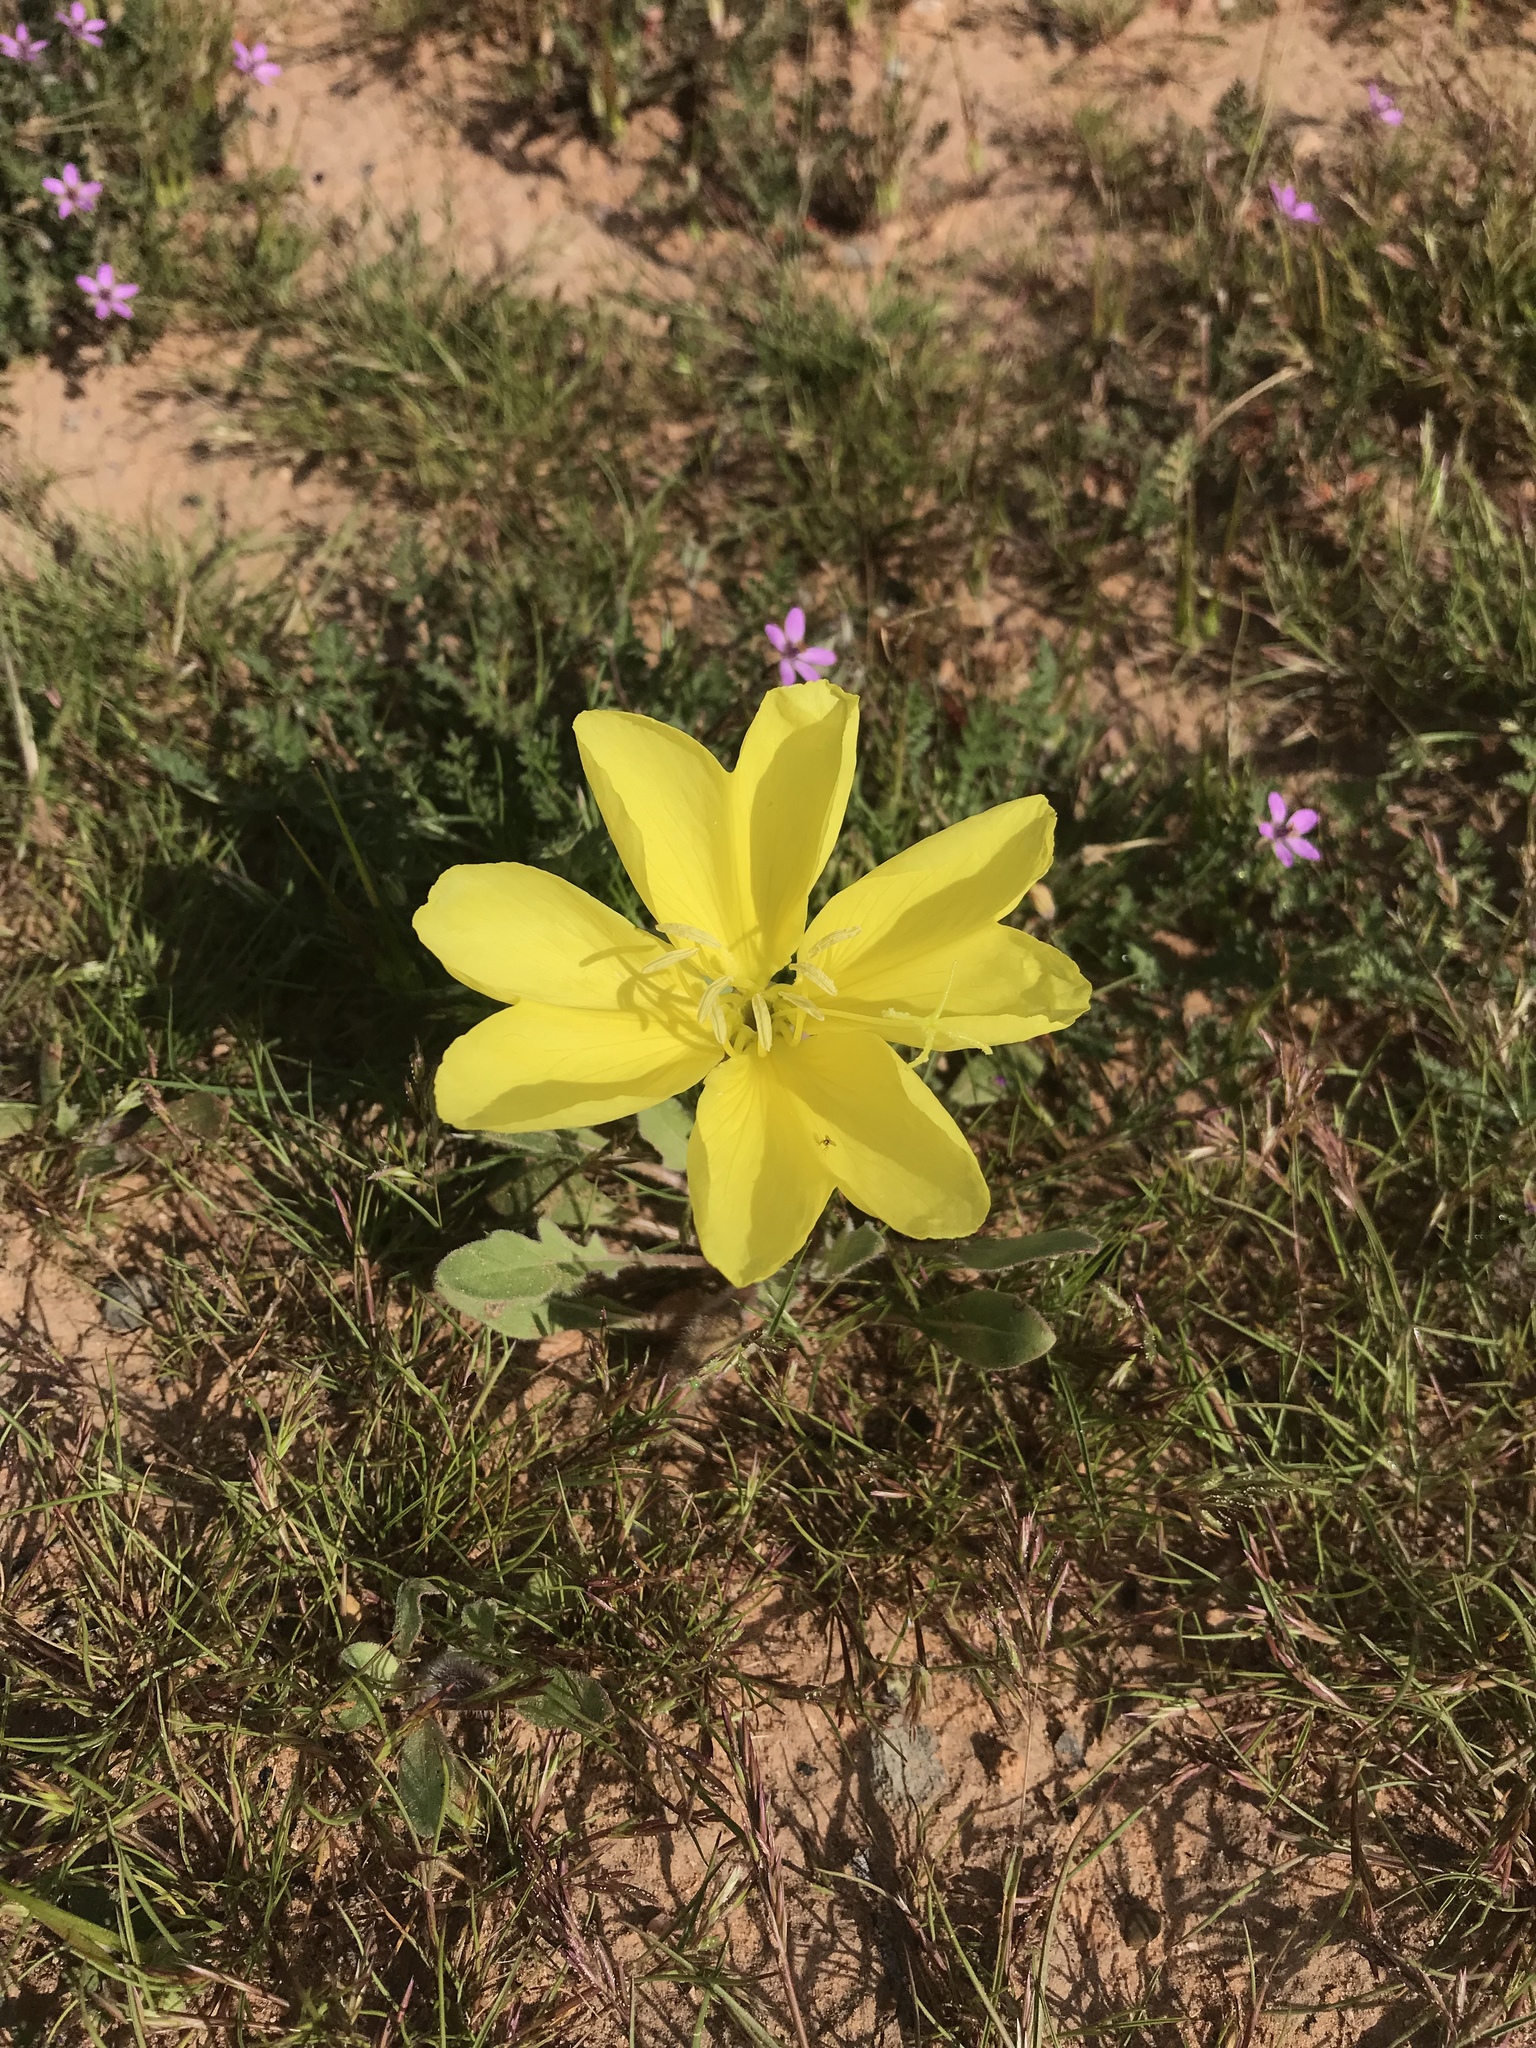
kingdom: Plantae
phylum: Tracheophyta
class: Magnoliopsida
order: Myrtales
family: Onagraceae
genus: Oenothera
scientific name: Oenothera primiveris
